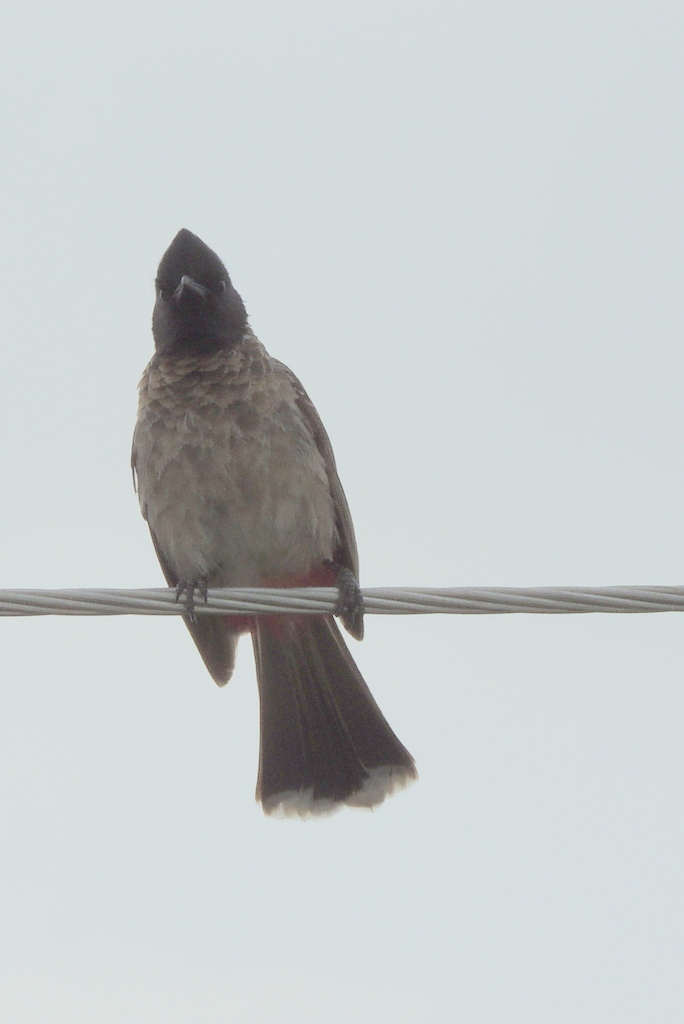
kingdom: Animalia
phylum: Chordata
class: Aves
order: Passeriformes
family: Pycnonotidae
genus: Pycnonotus
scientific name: Pycnonotus cafer
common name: Red-vented bulbul
